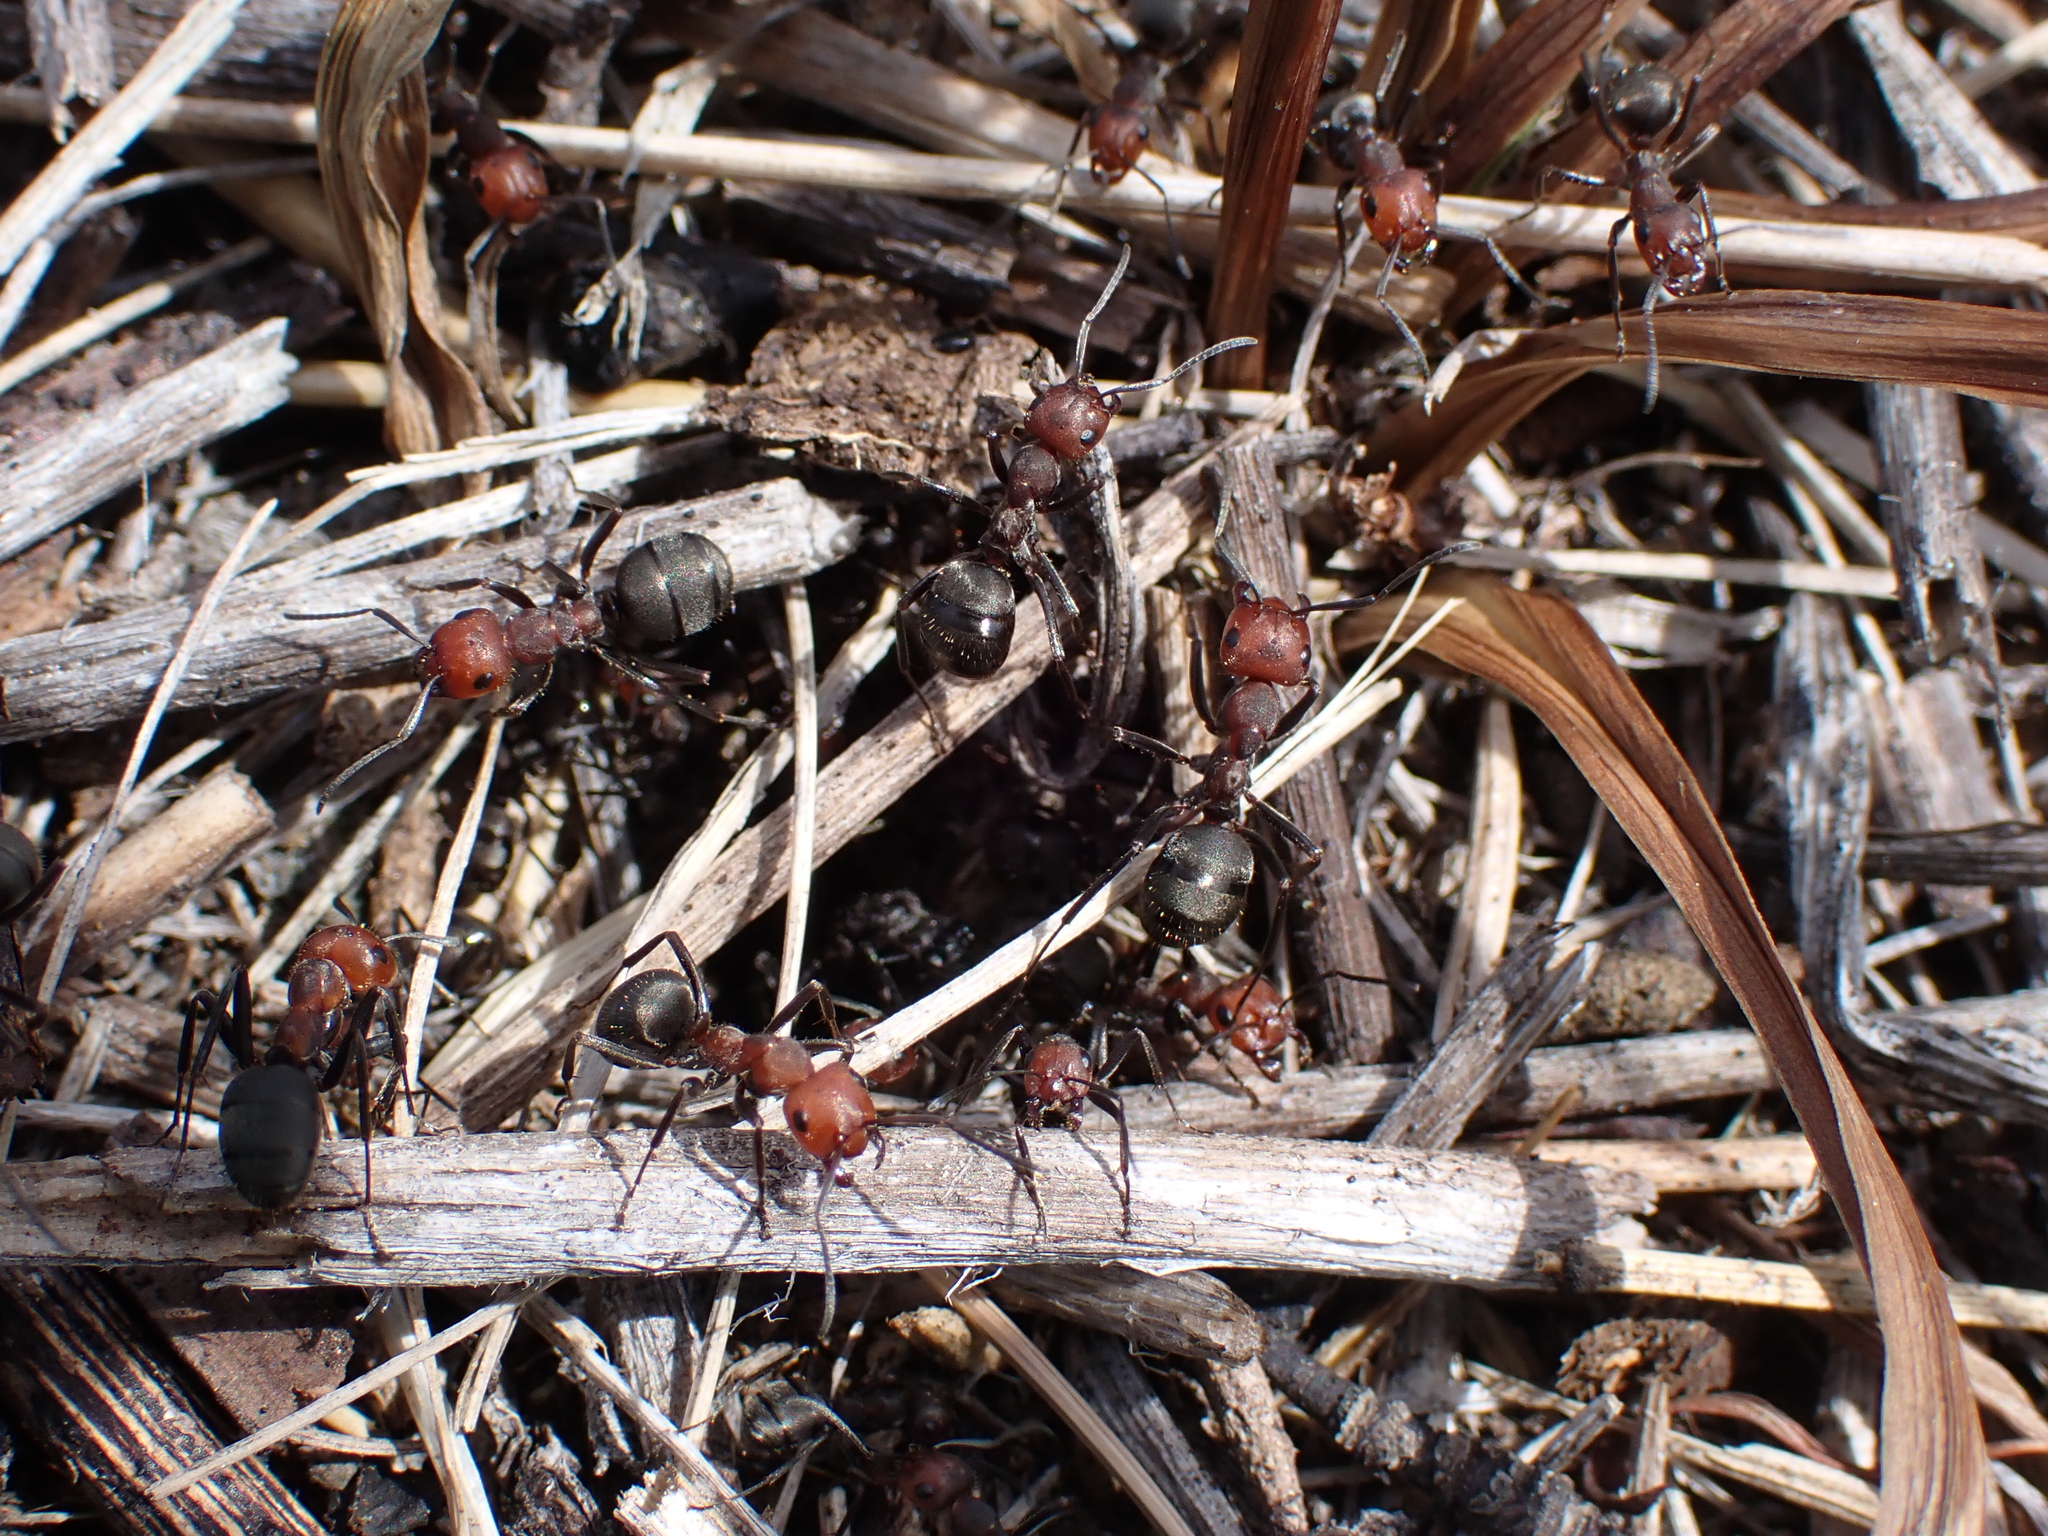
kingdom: Animalia
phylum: Arthropoda
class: Insecta
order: Hymenoptera
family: Formicidae
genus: Formica
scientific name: Formica obscuripes
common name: Western thatching ant
